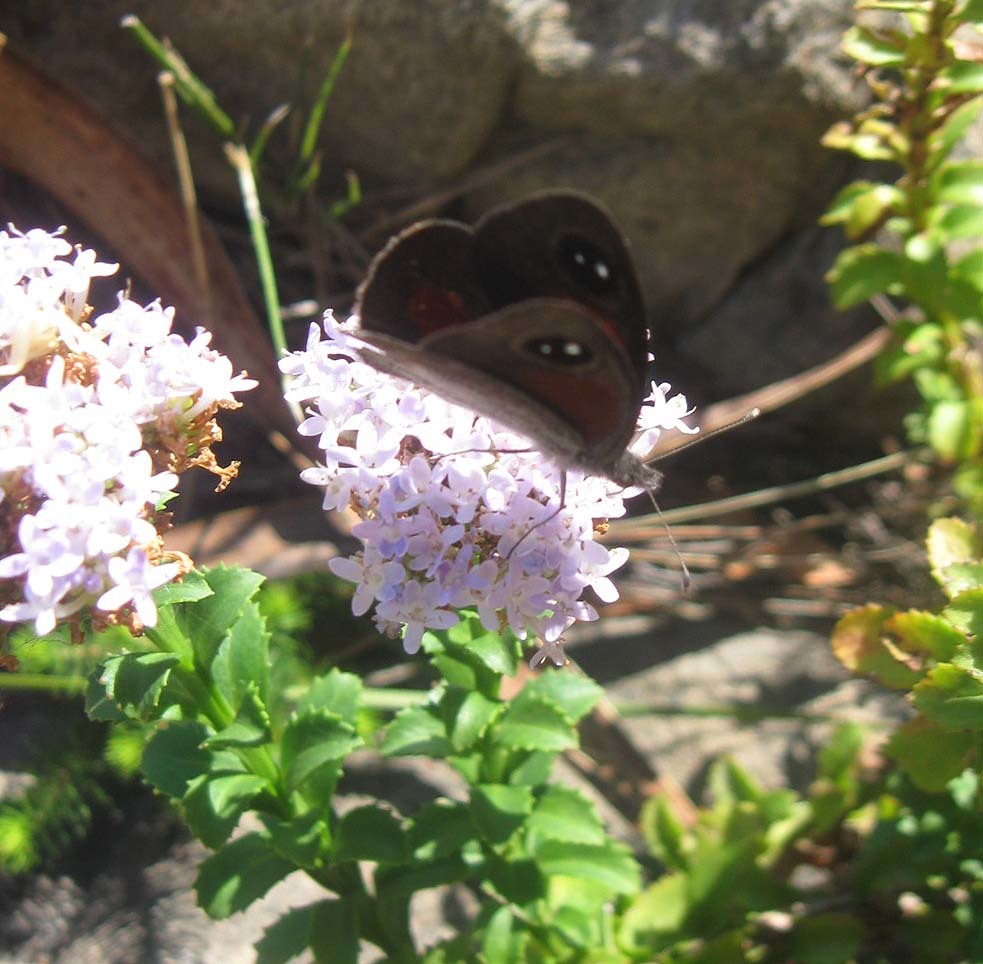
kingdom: Animalia
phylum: Arthropoda
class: Insecta
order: Lepidoptera
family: Nymphalidae
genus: Stygionympha
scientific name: Stygionympha vigilans
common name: Western hillside brown
